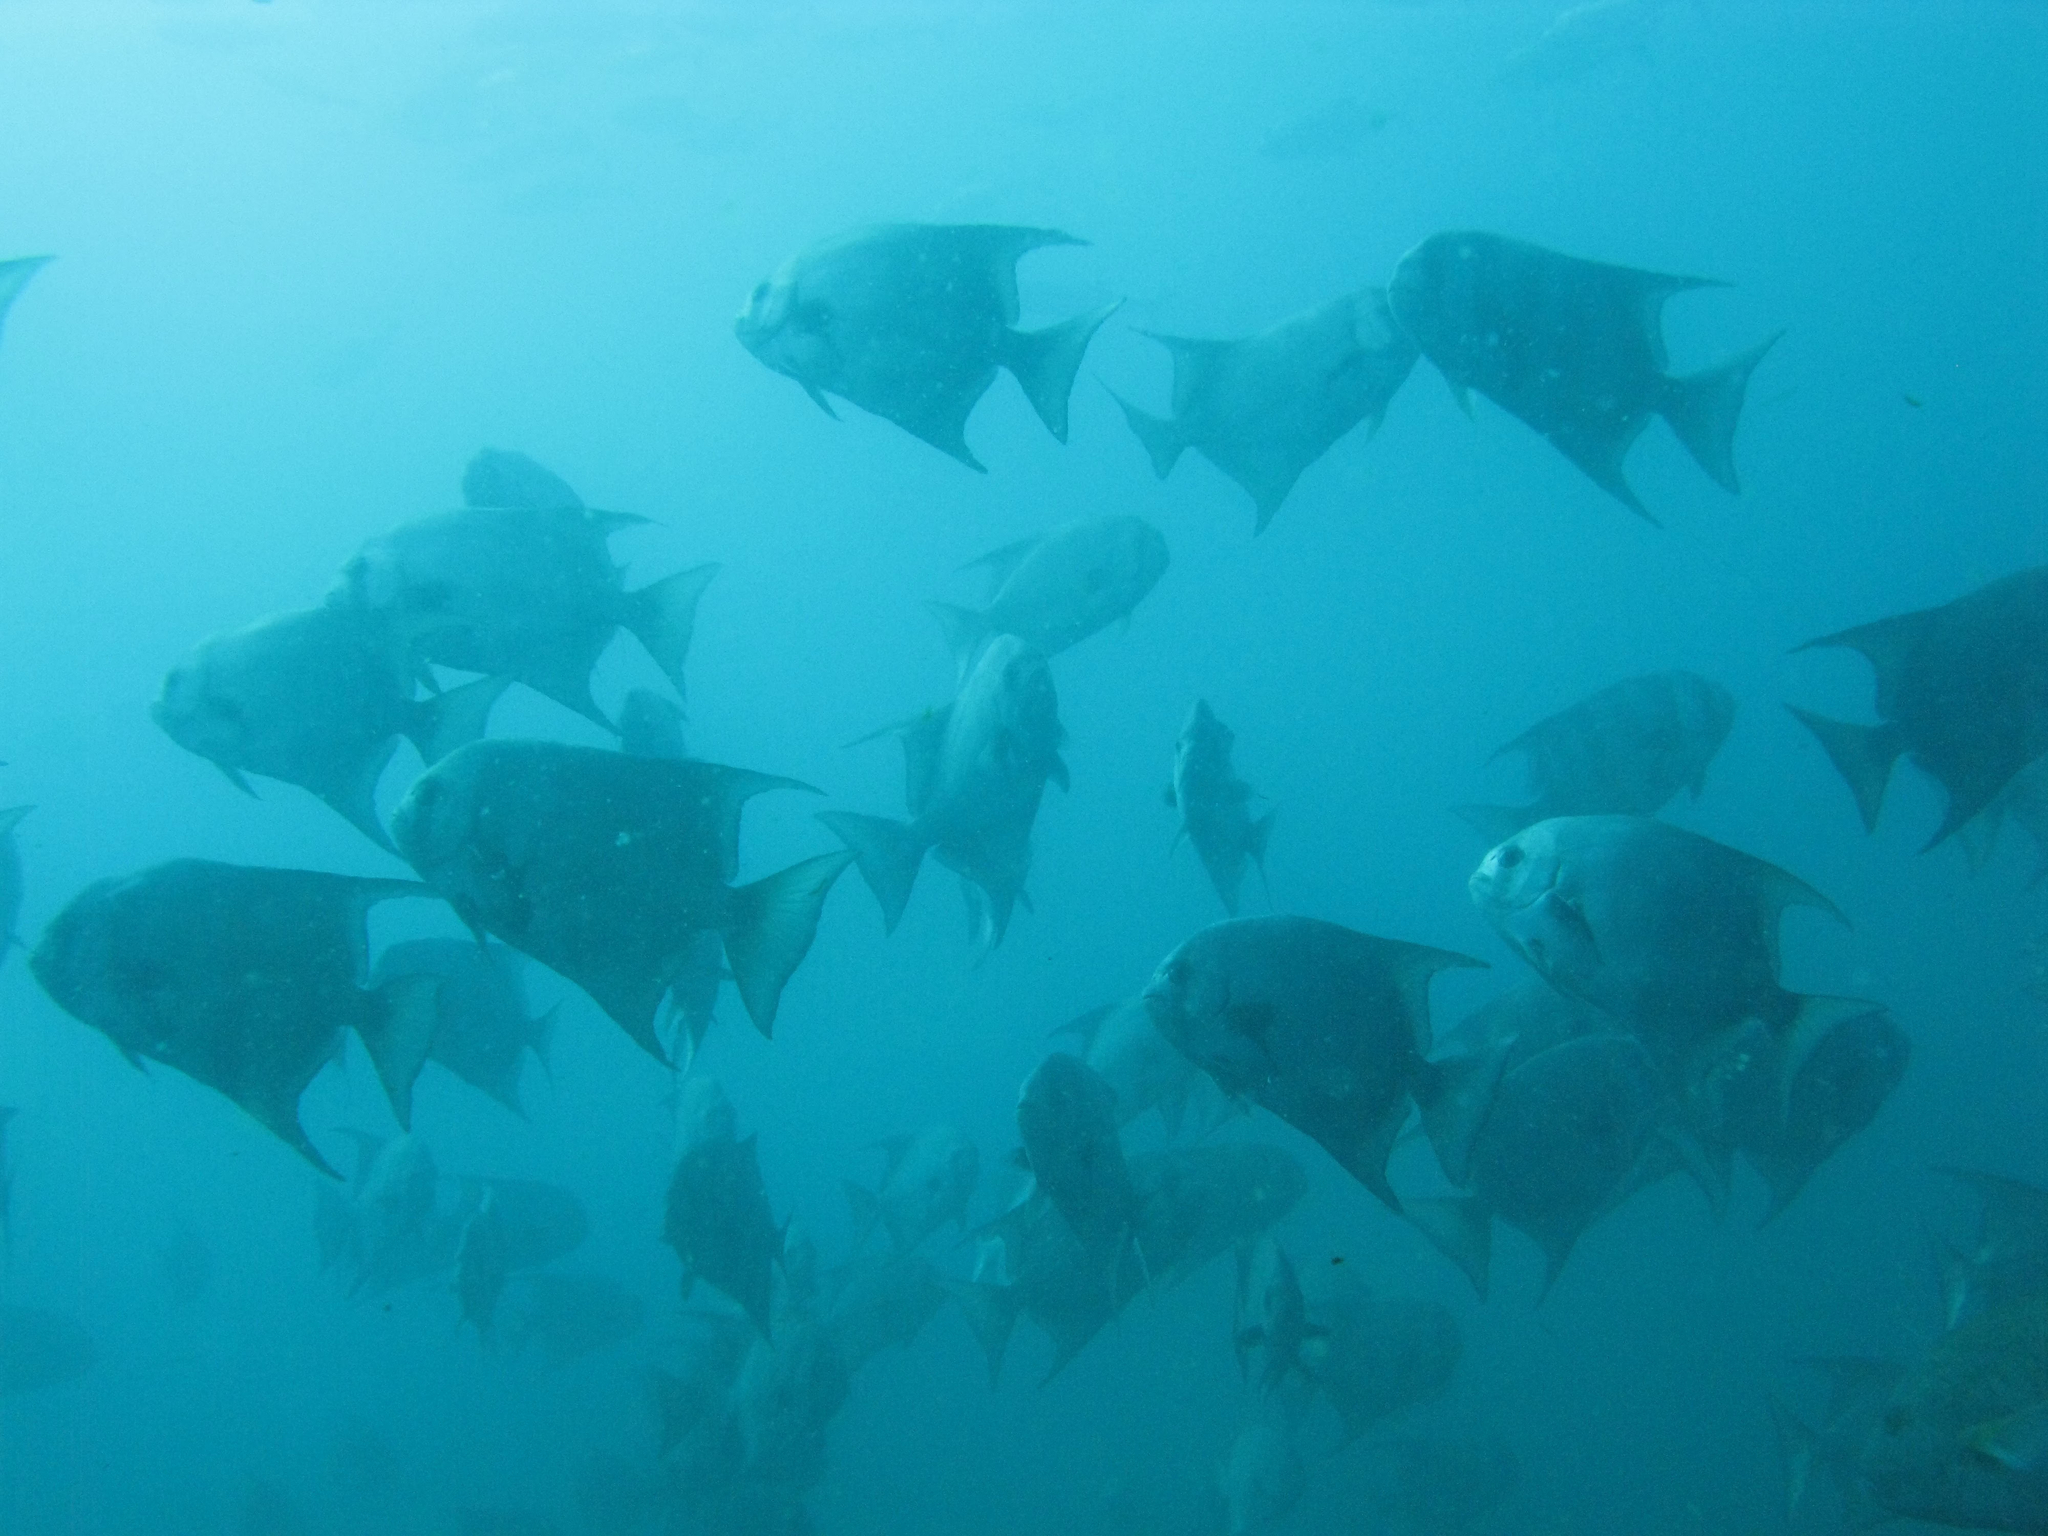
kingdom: Animalia
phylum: Chordata
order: Perciformes
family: Ephippidae
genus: Chaetodipterus
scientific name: Chaetodipterus zonatus
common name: Pacific spadefish
